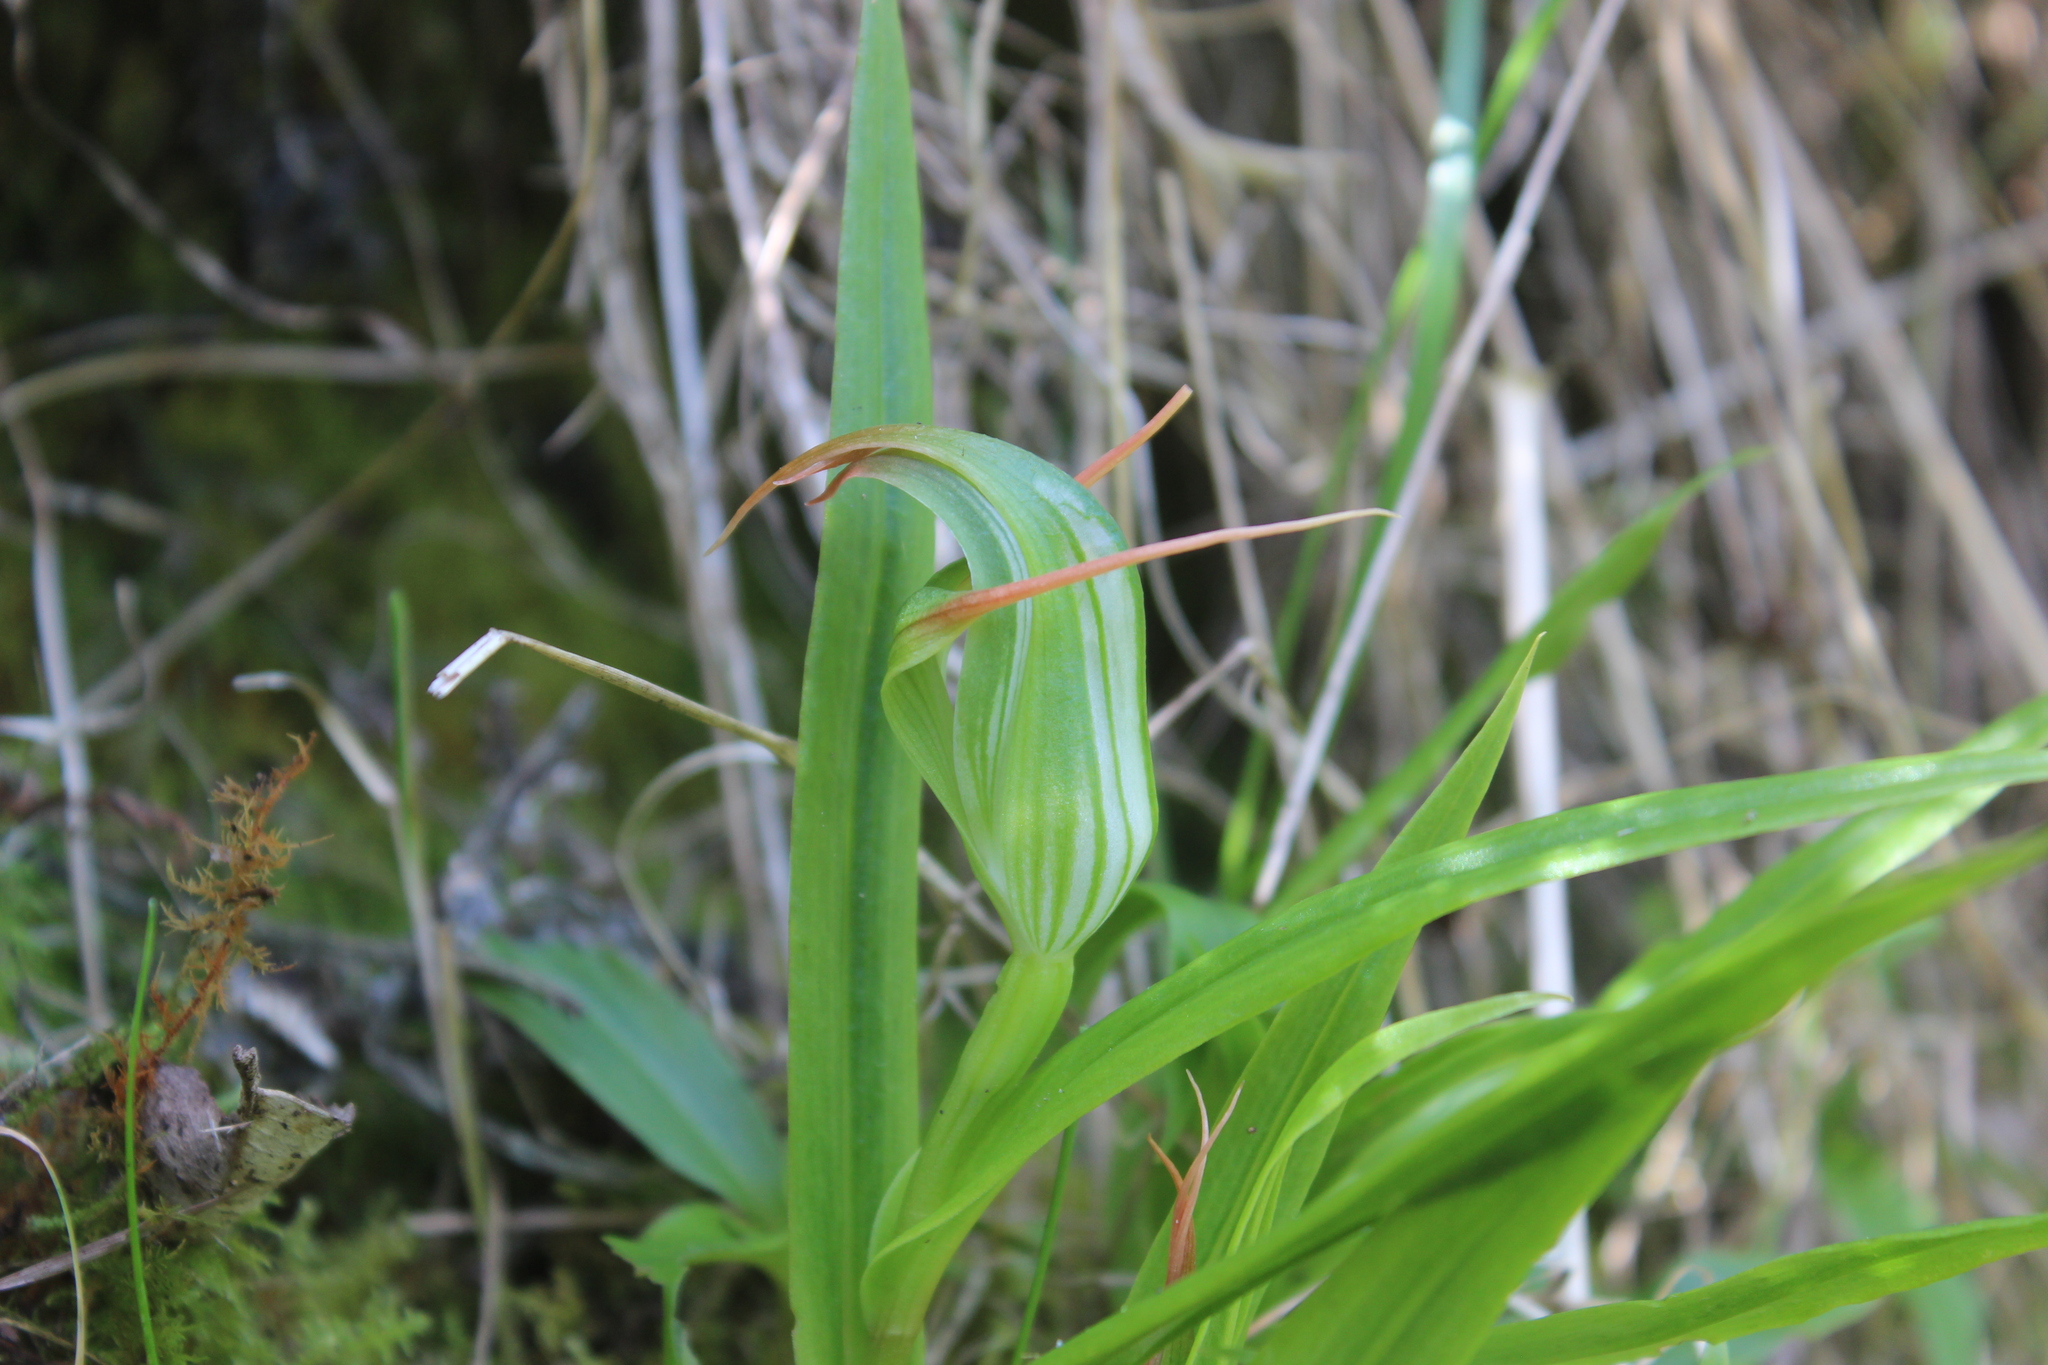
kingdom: Plantae
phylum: Tracheophyta
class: Liliopsida
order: Asparagales
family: Orchidaceae
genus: Pterostylis
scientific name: Pterostylis banksii
